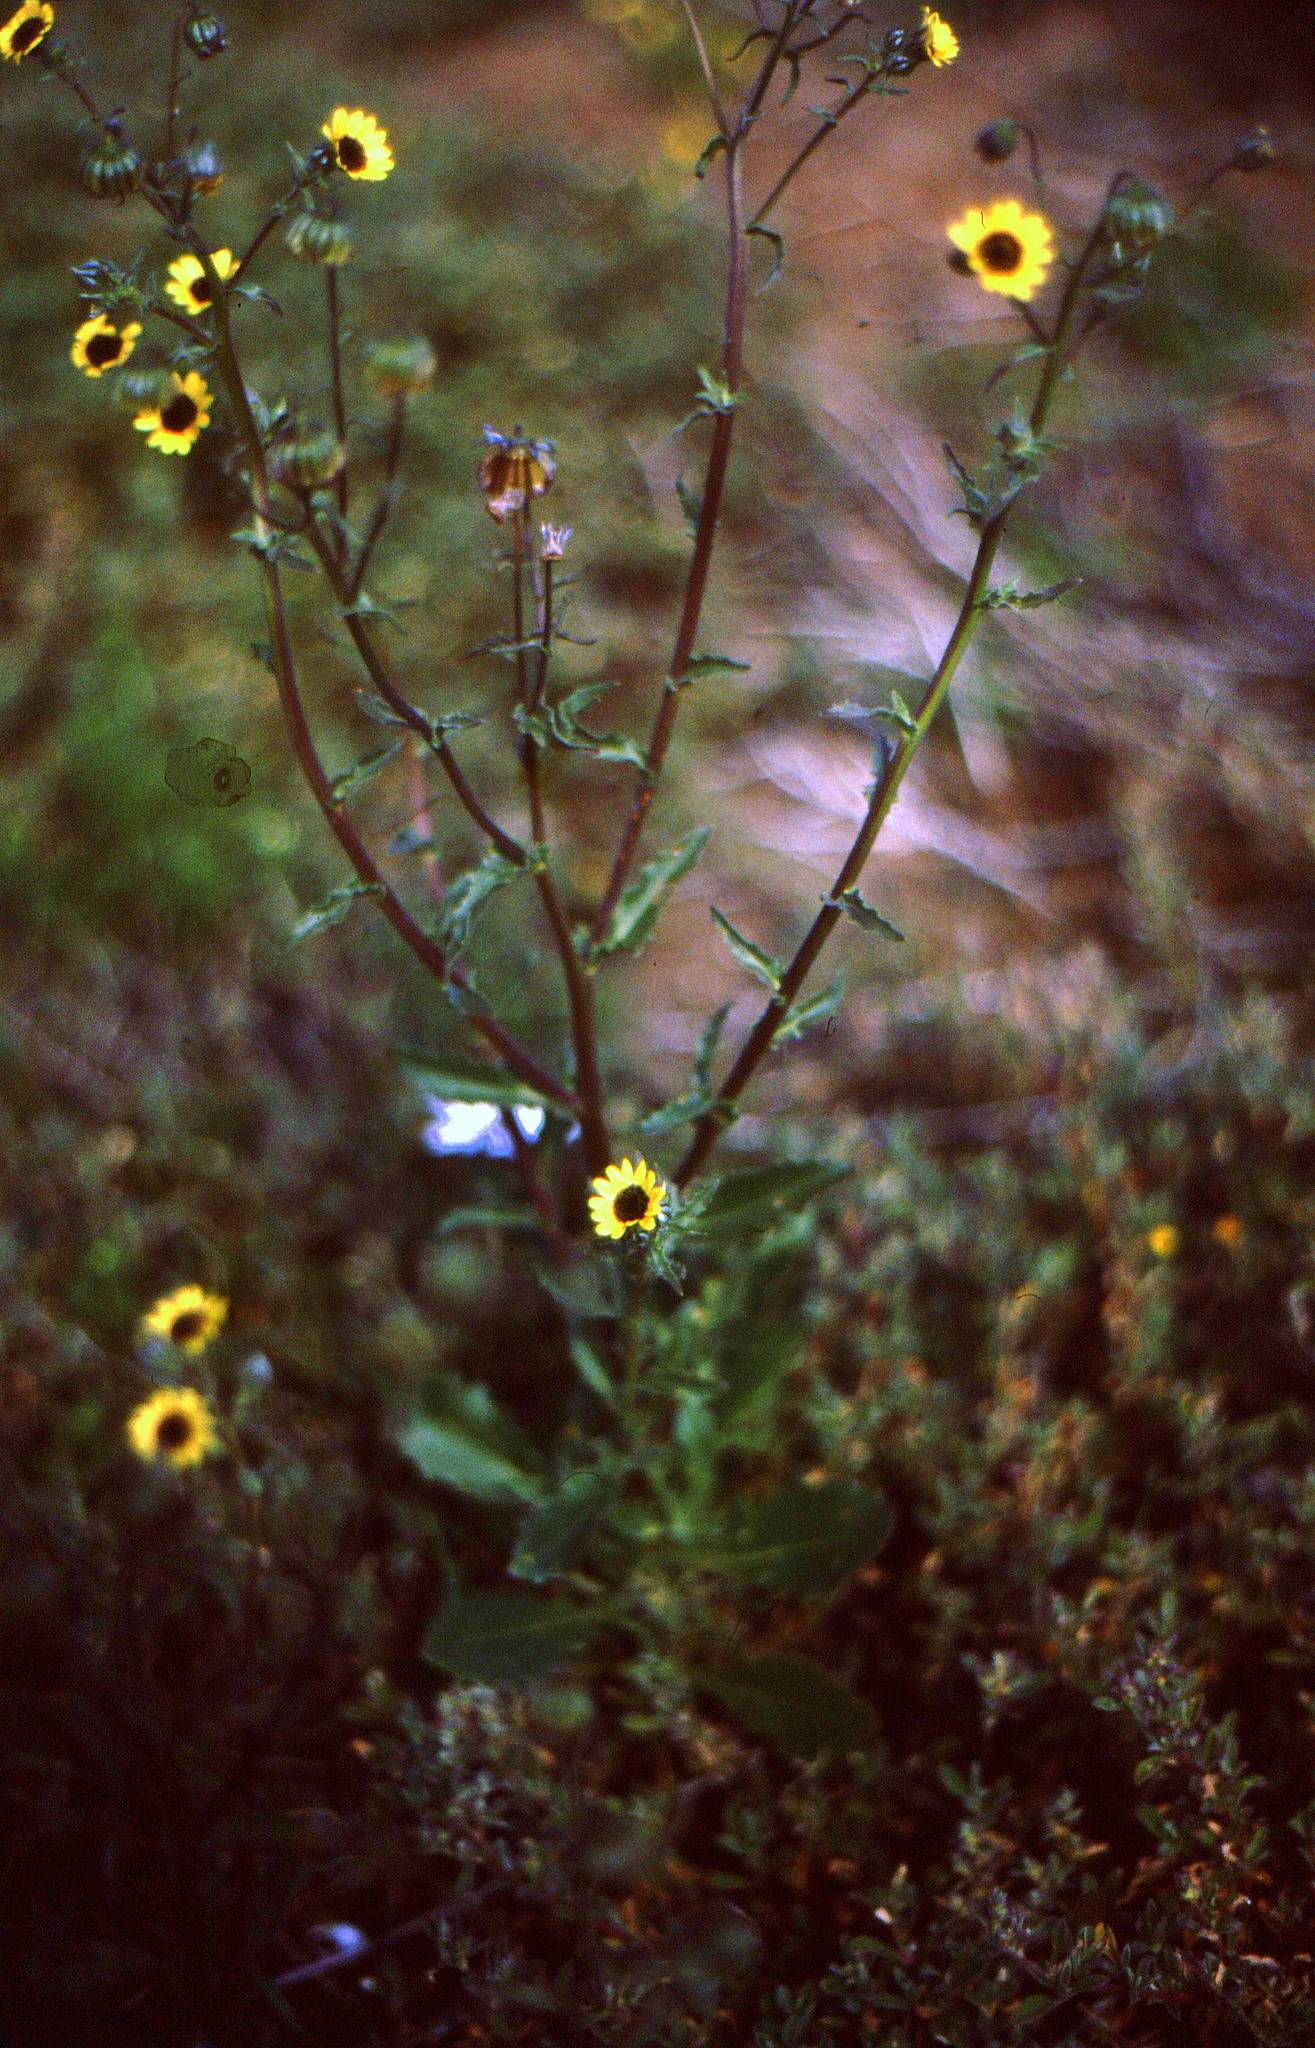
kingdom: Plantae
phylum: Tracheophyta
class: Magnoliopsida
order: Asterales
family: Asteraceae
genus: Osteospermum
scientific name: Osteospermum monstrosum
